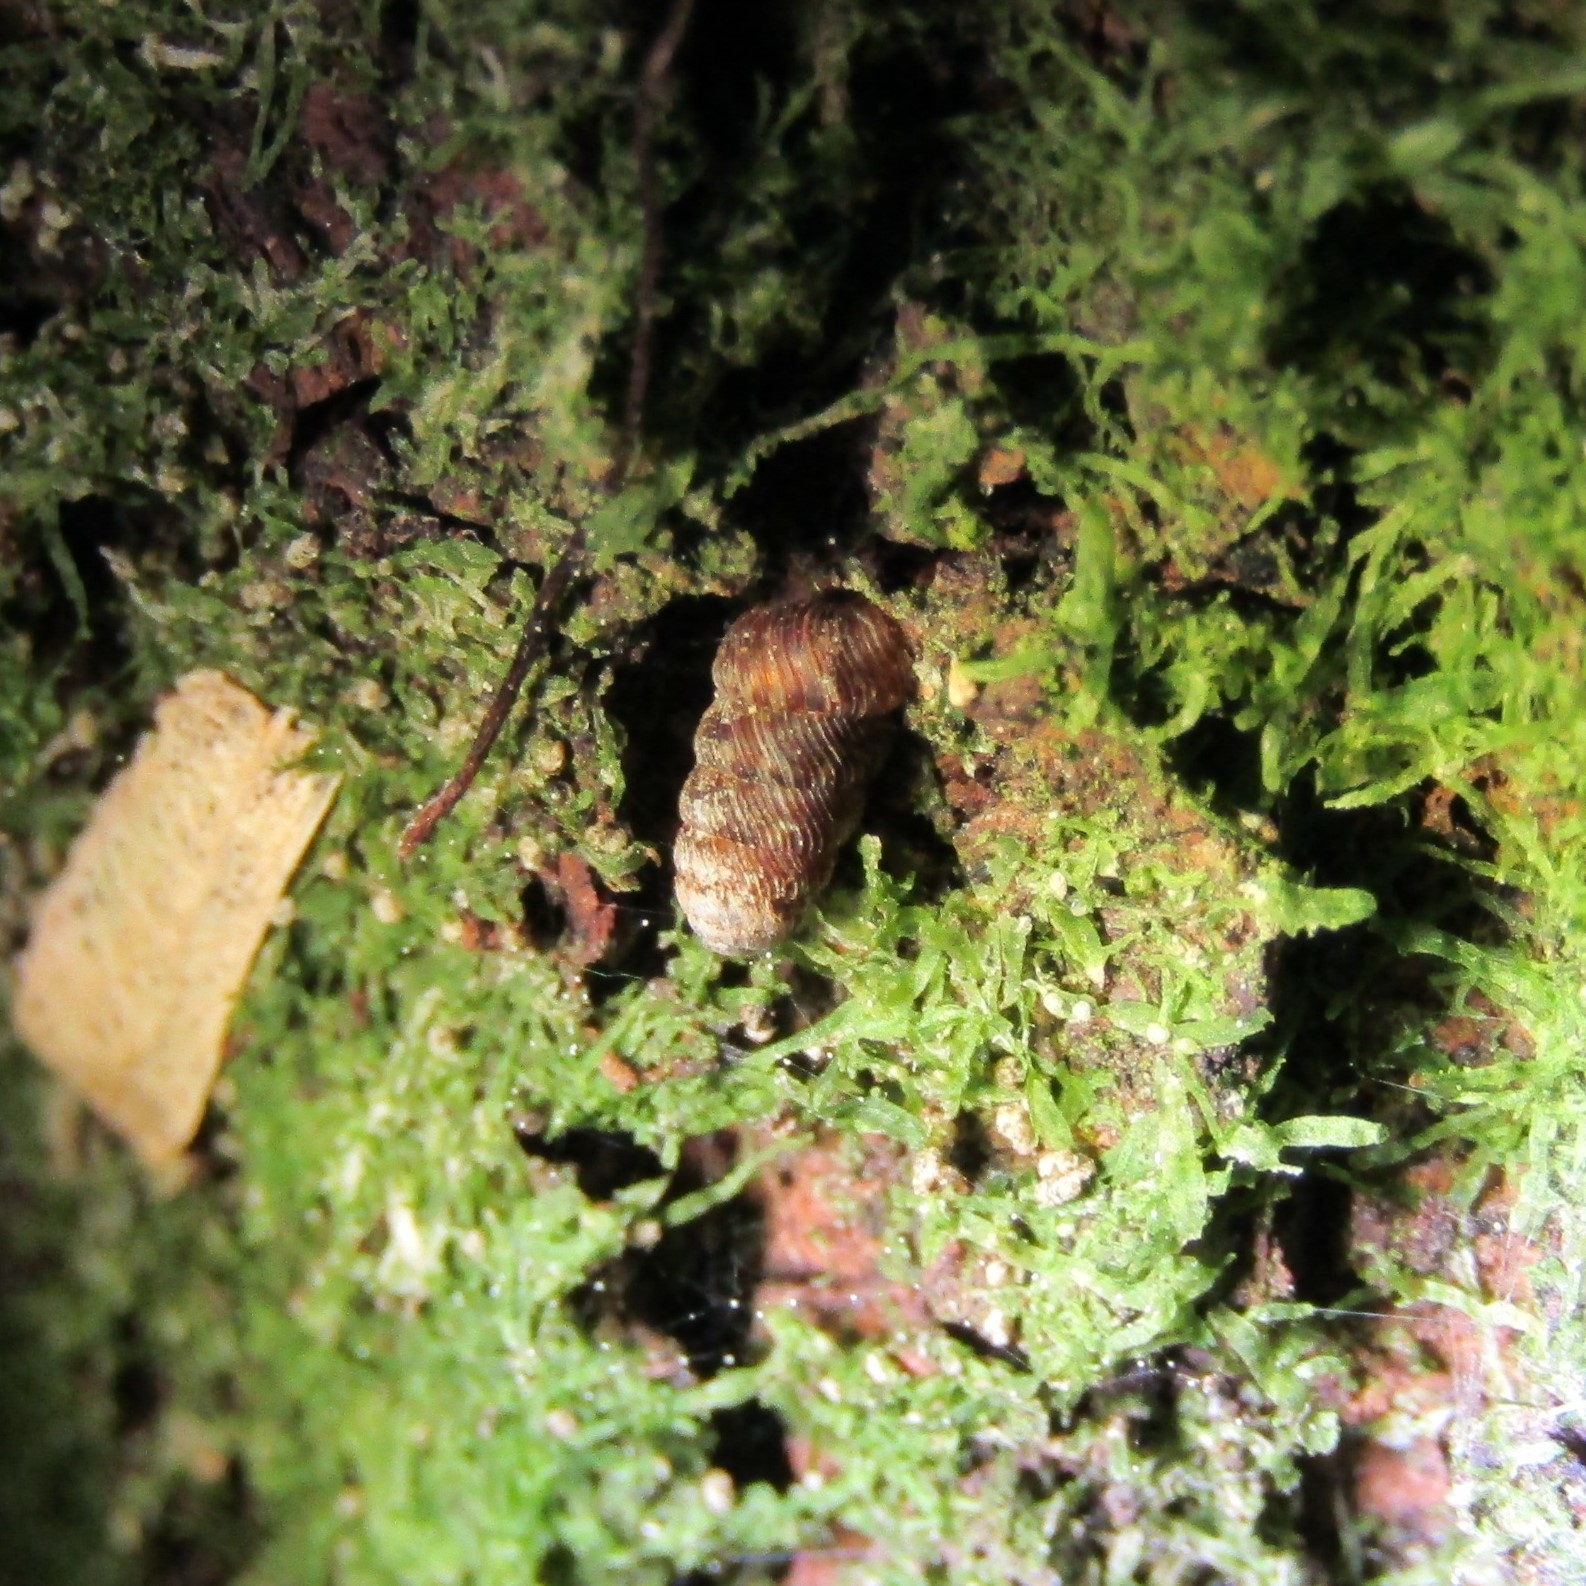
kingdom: Animalia
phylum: Mollusca
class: Gastropoda
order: Stylommatophora
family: Charopidae
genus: Phenacharopa
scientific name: Phenacharopa novoseelandica
